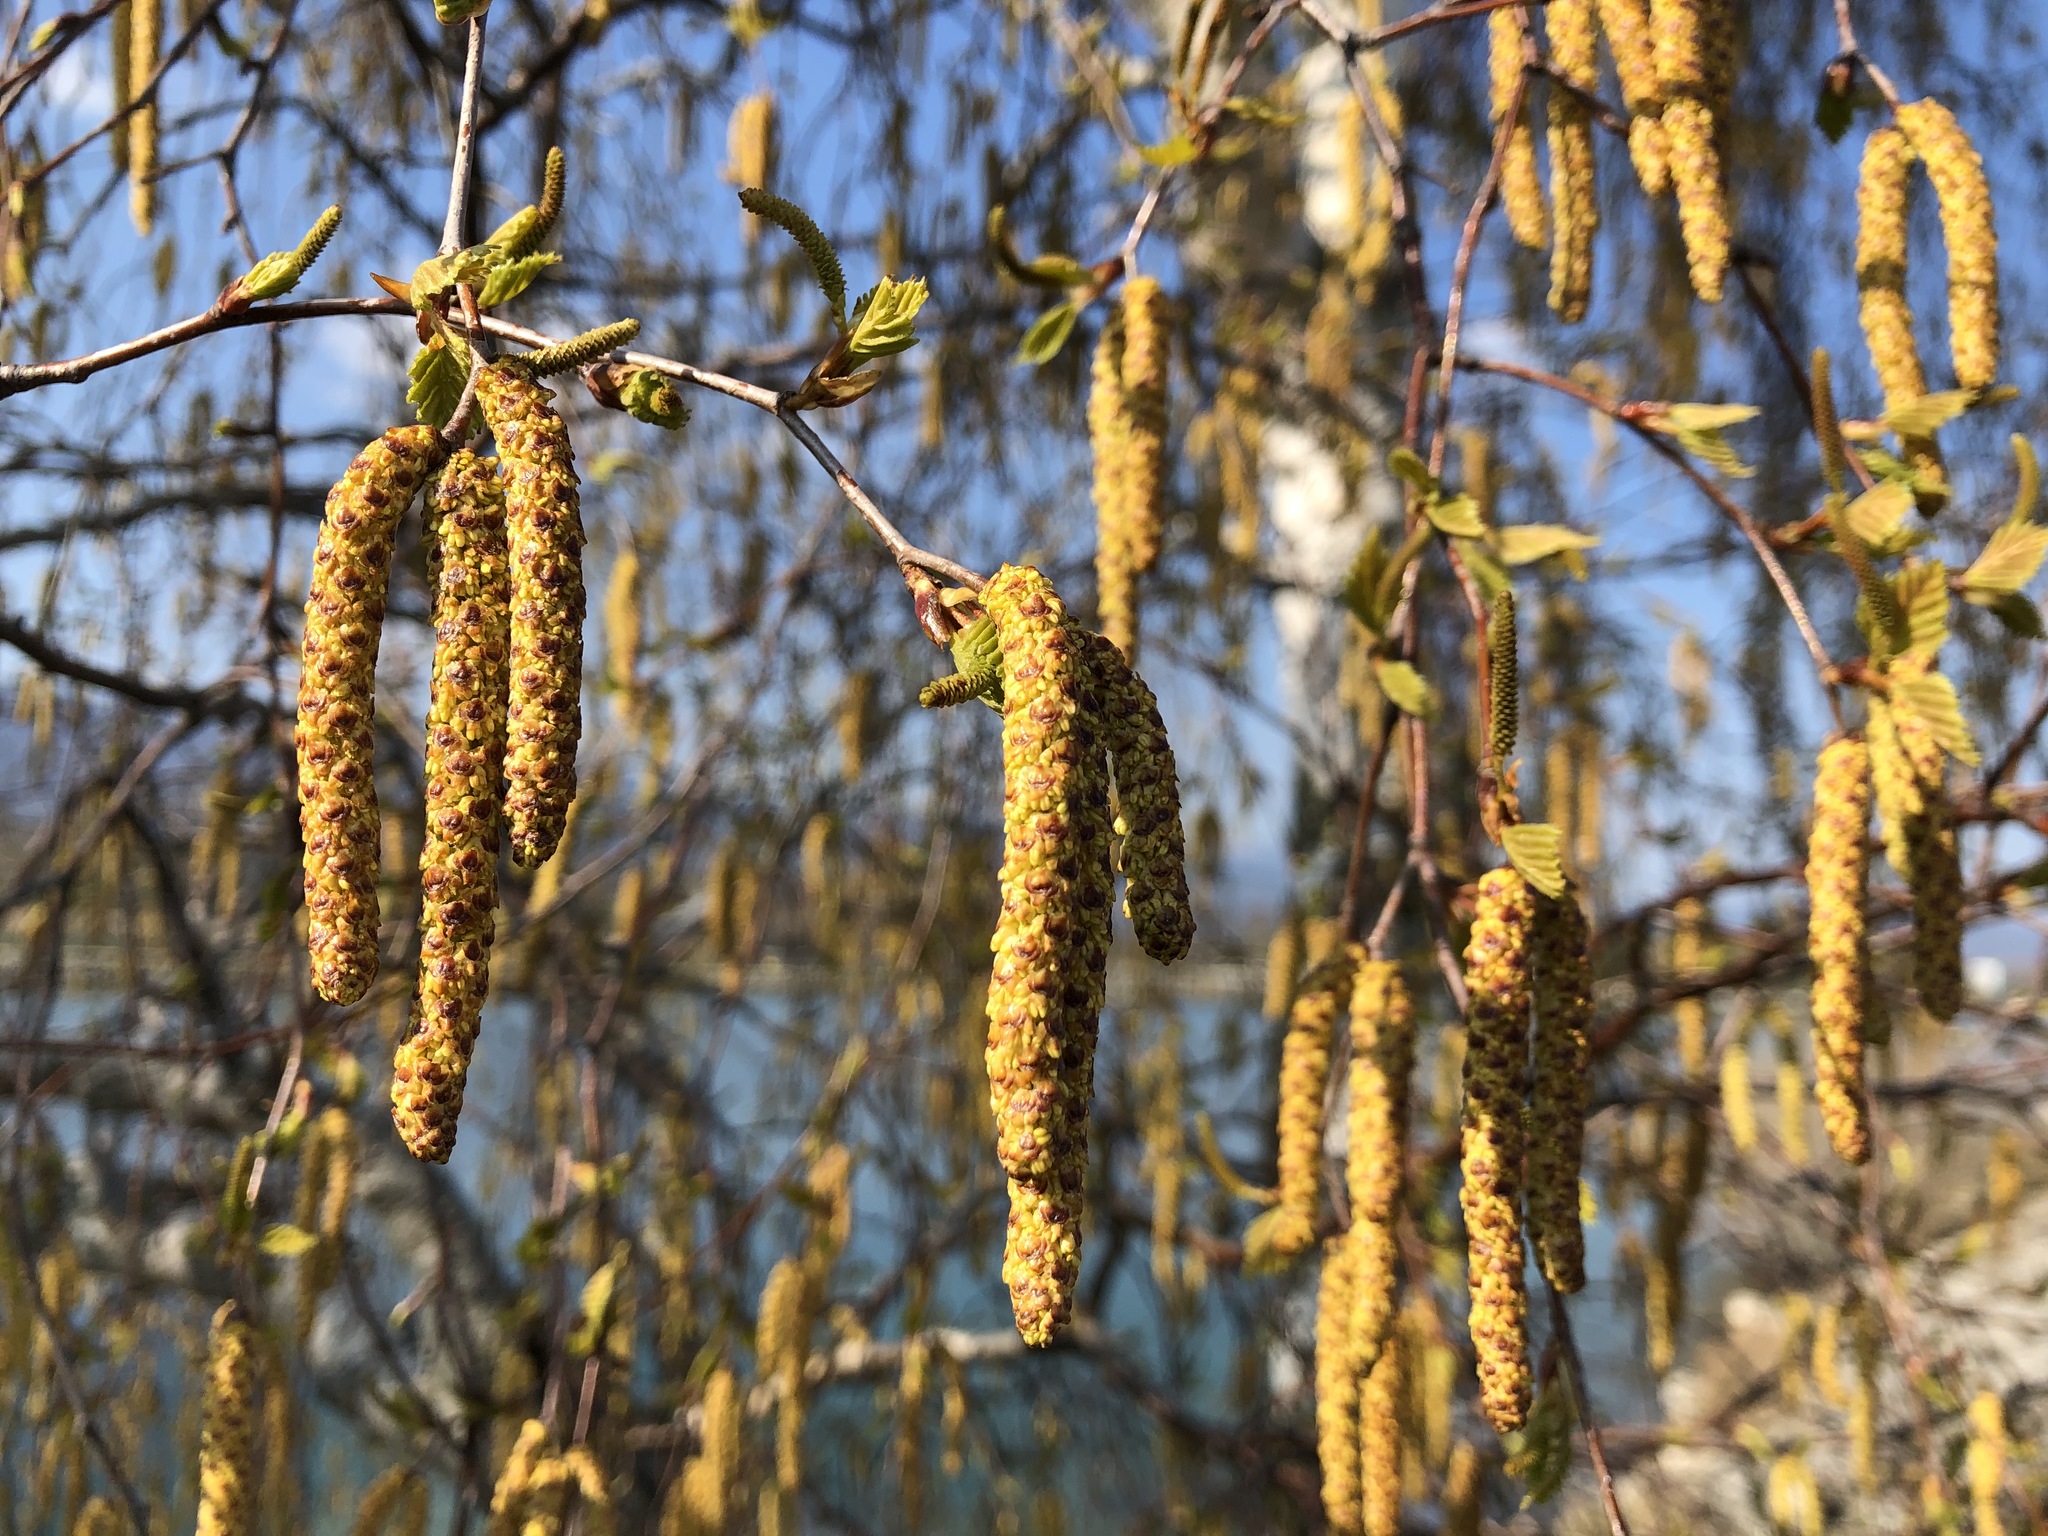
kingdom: Plantae
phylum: Tracheophyta
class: Magnoliopsida
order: Fagales
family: Betulaceae
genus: Betula
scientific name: Betula pendula
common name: Silver birch
